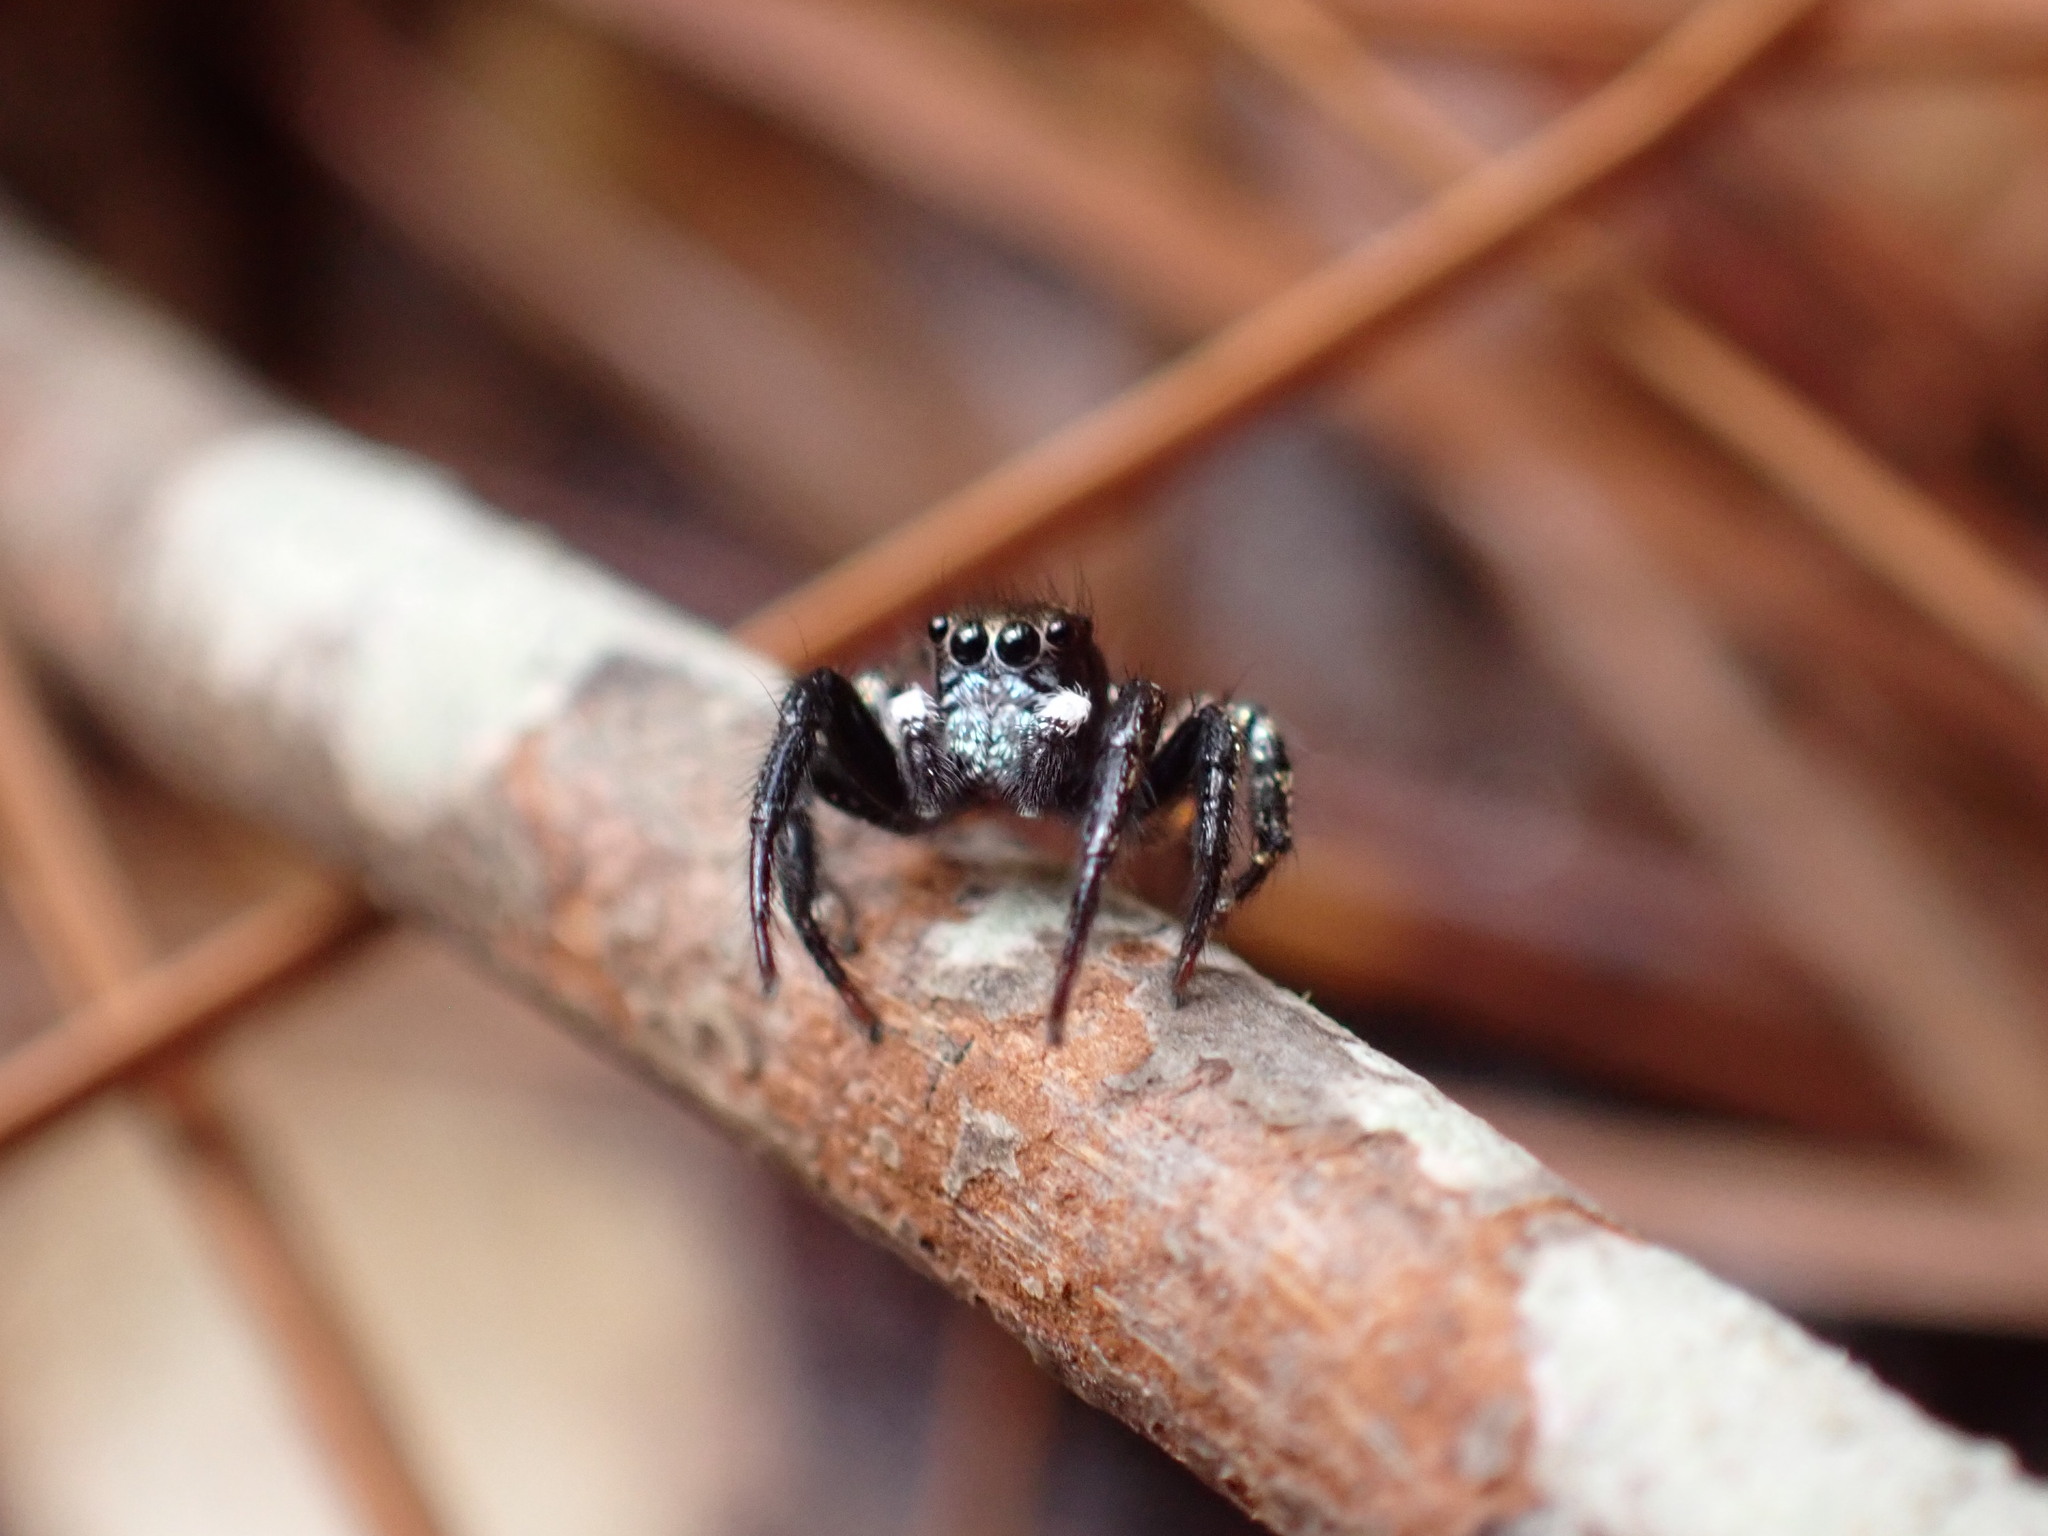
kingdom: Animalia
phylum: Arthropoda
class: Arachnida
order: Araneae
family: Salticidae
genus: Anasaitis
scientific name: Anasaitis canosa
